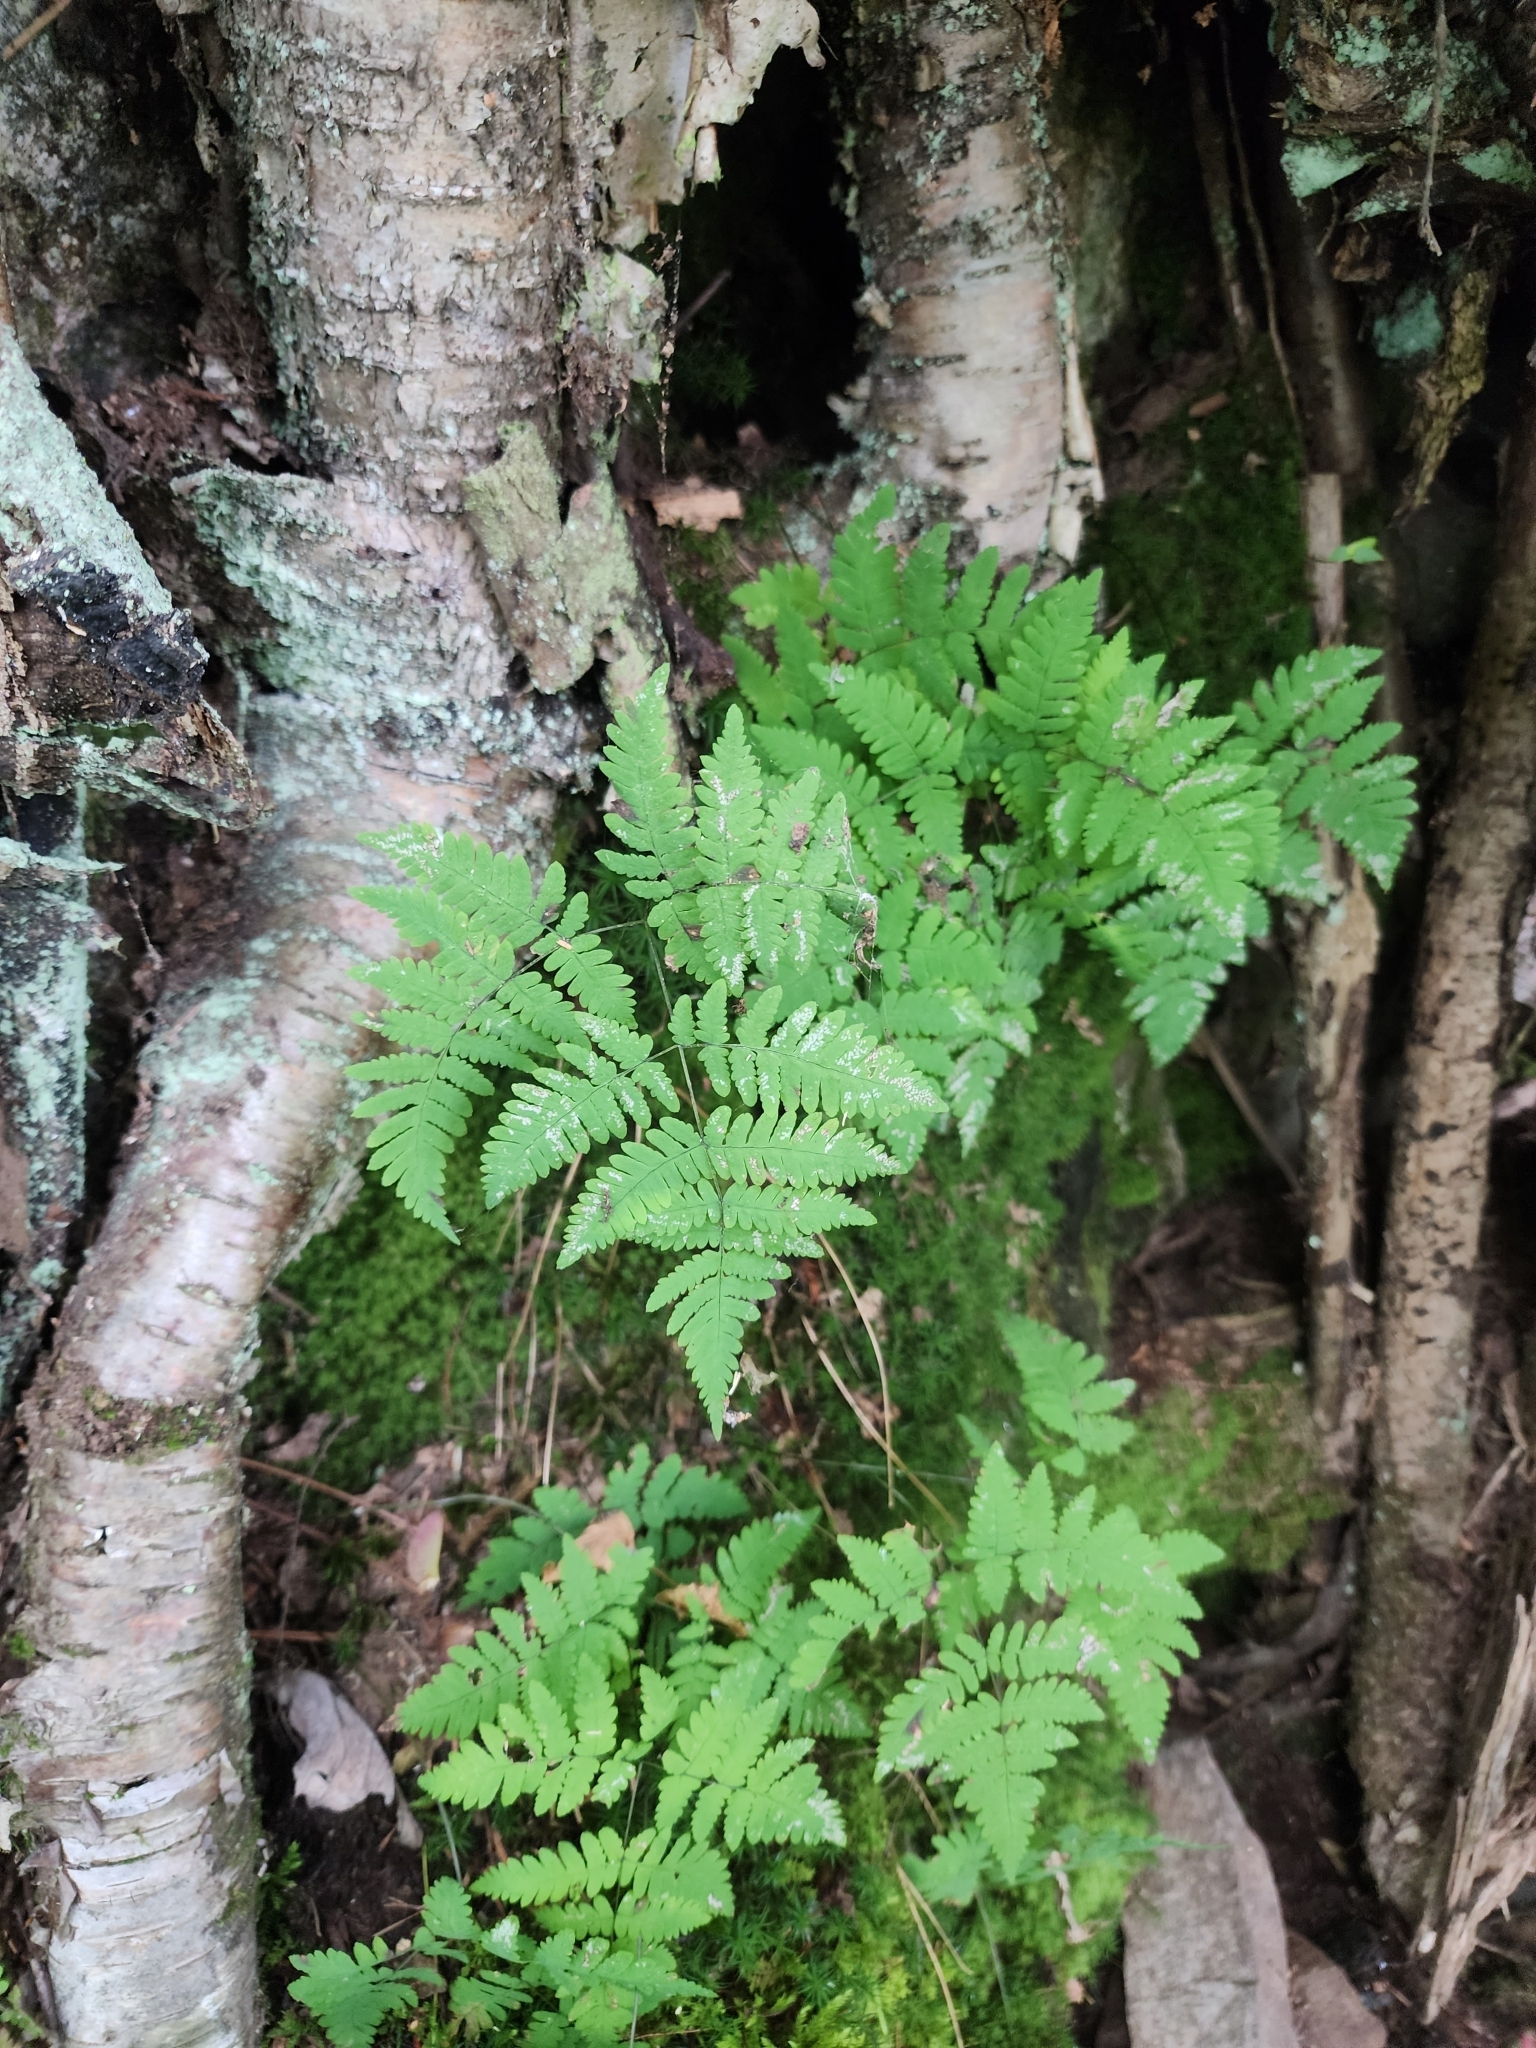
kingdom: Plantae
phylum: Tracheophyta
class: Polypodiopsida
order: Polypodiales
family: Cystopteridaceae
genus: Gymnocarpium
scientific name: Gymnocarpium dryopteris
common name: Oak fern
